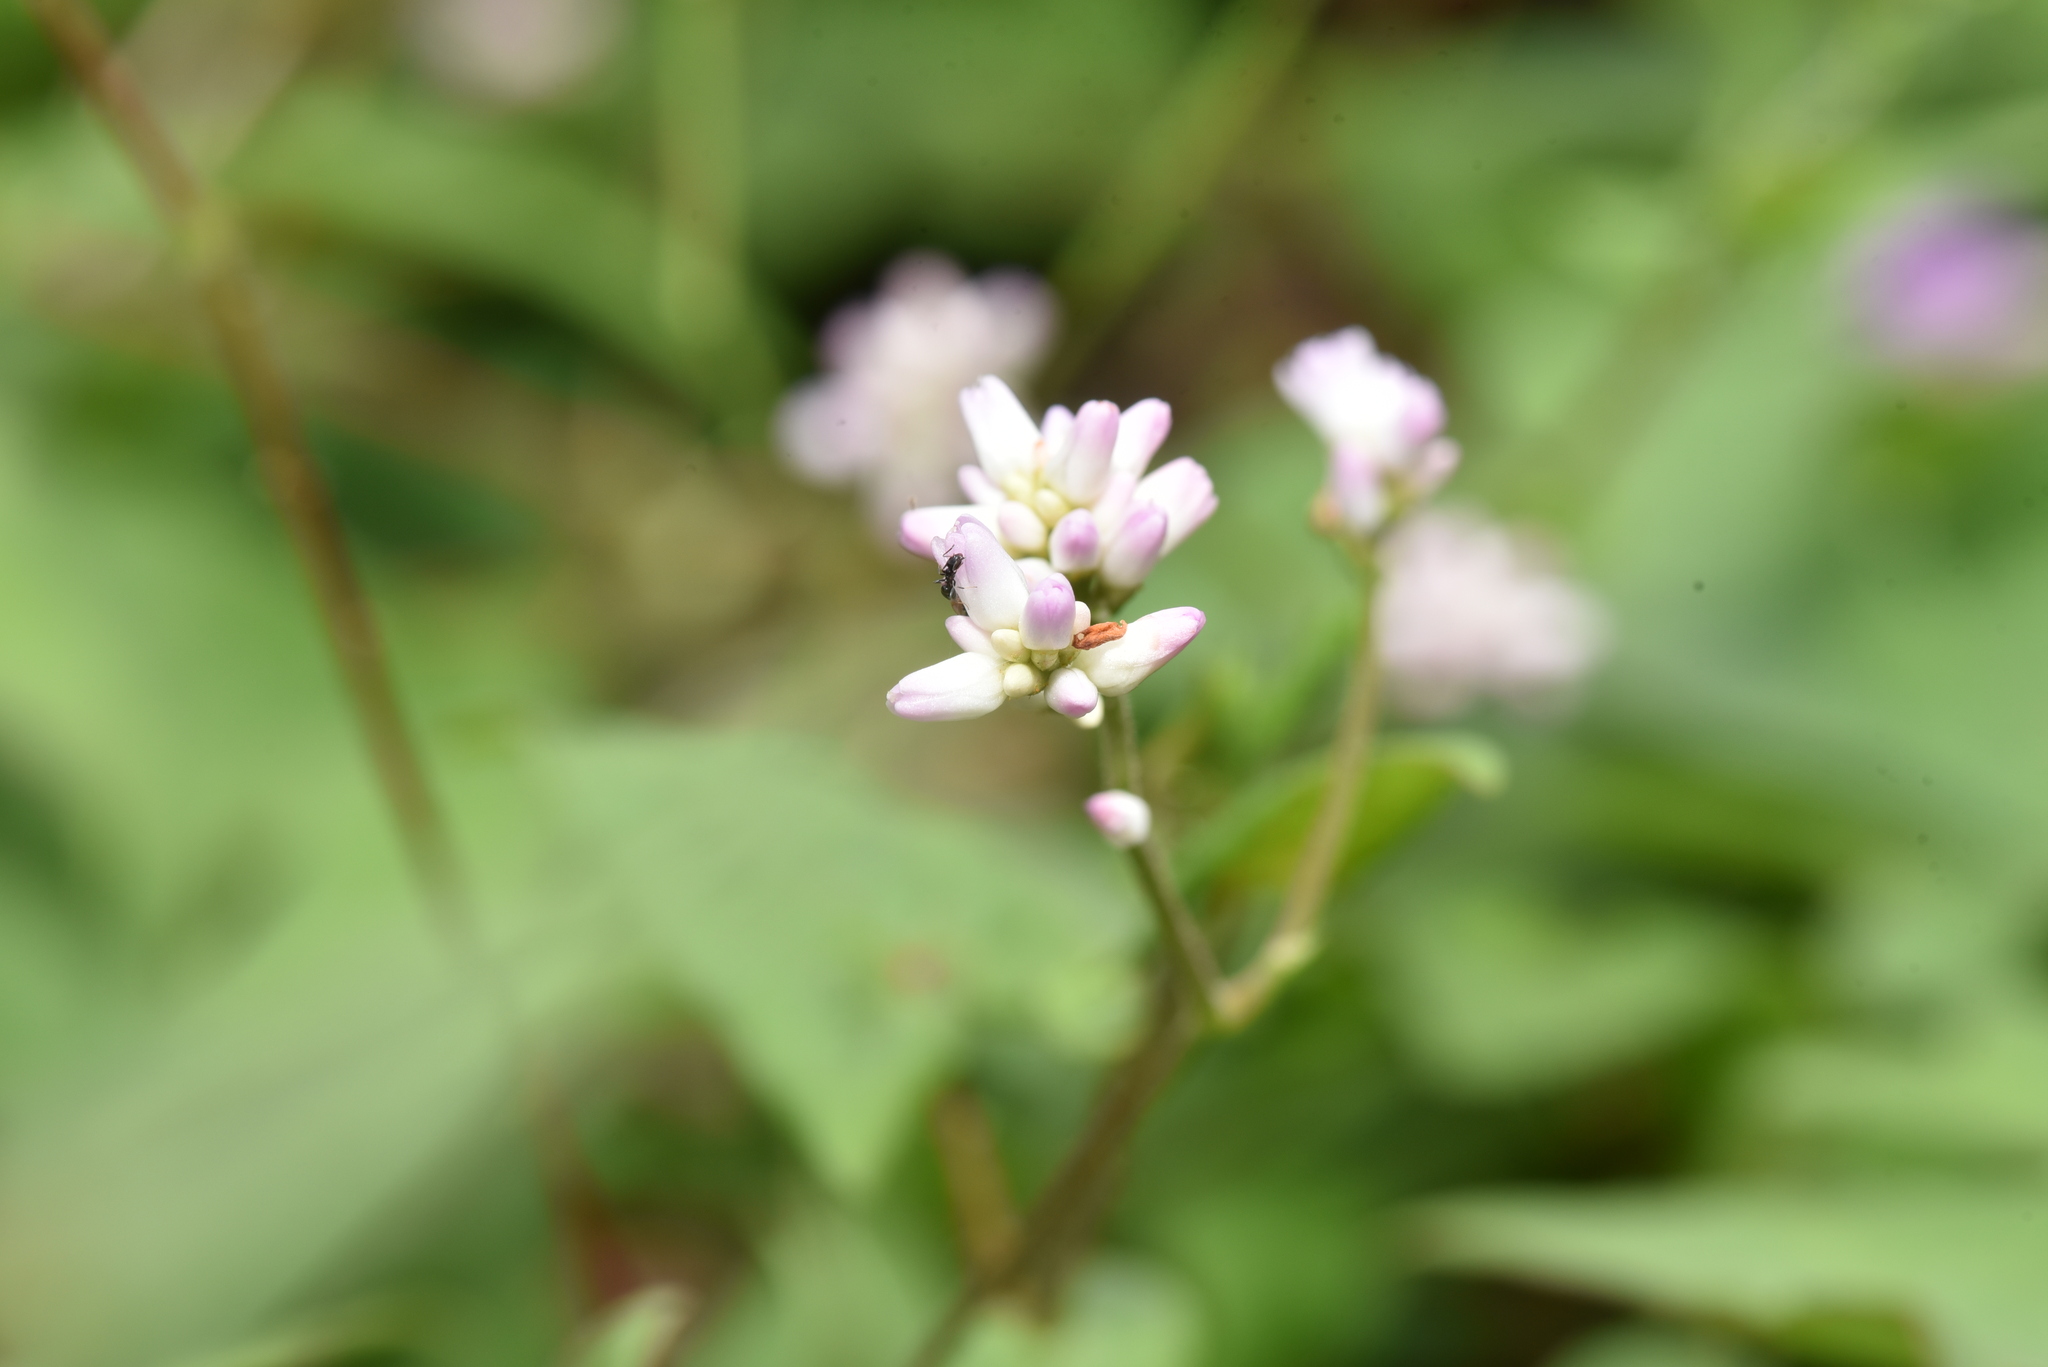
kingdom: Plantae
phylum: Tracheophyta
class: Magnoliopsida
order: Caryophyllales
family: Polygonaceae
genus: Persicaria
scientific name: Persicaria senticosa
